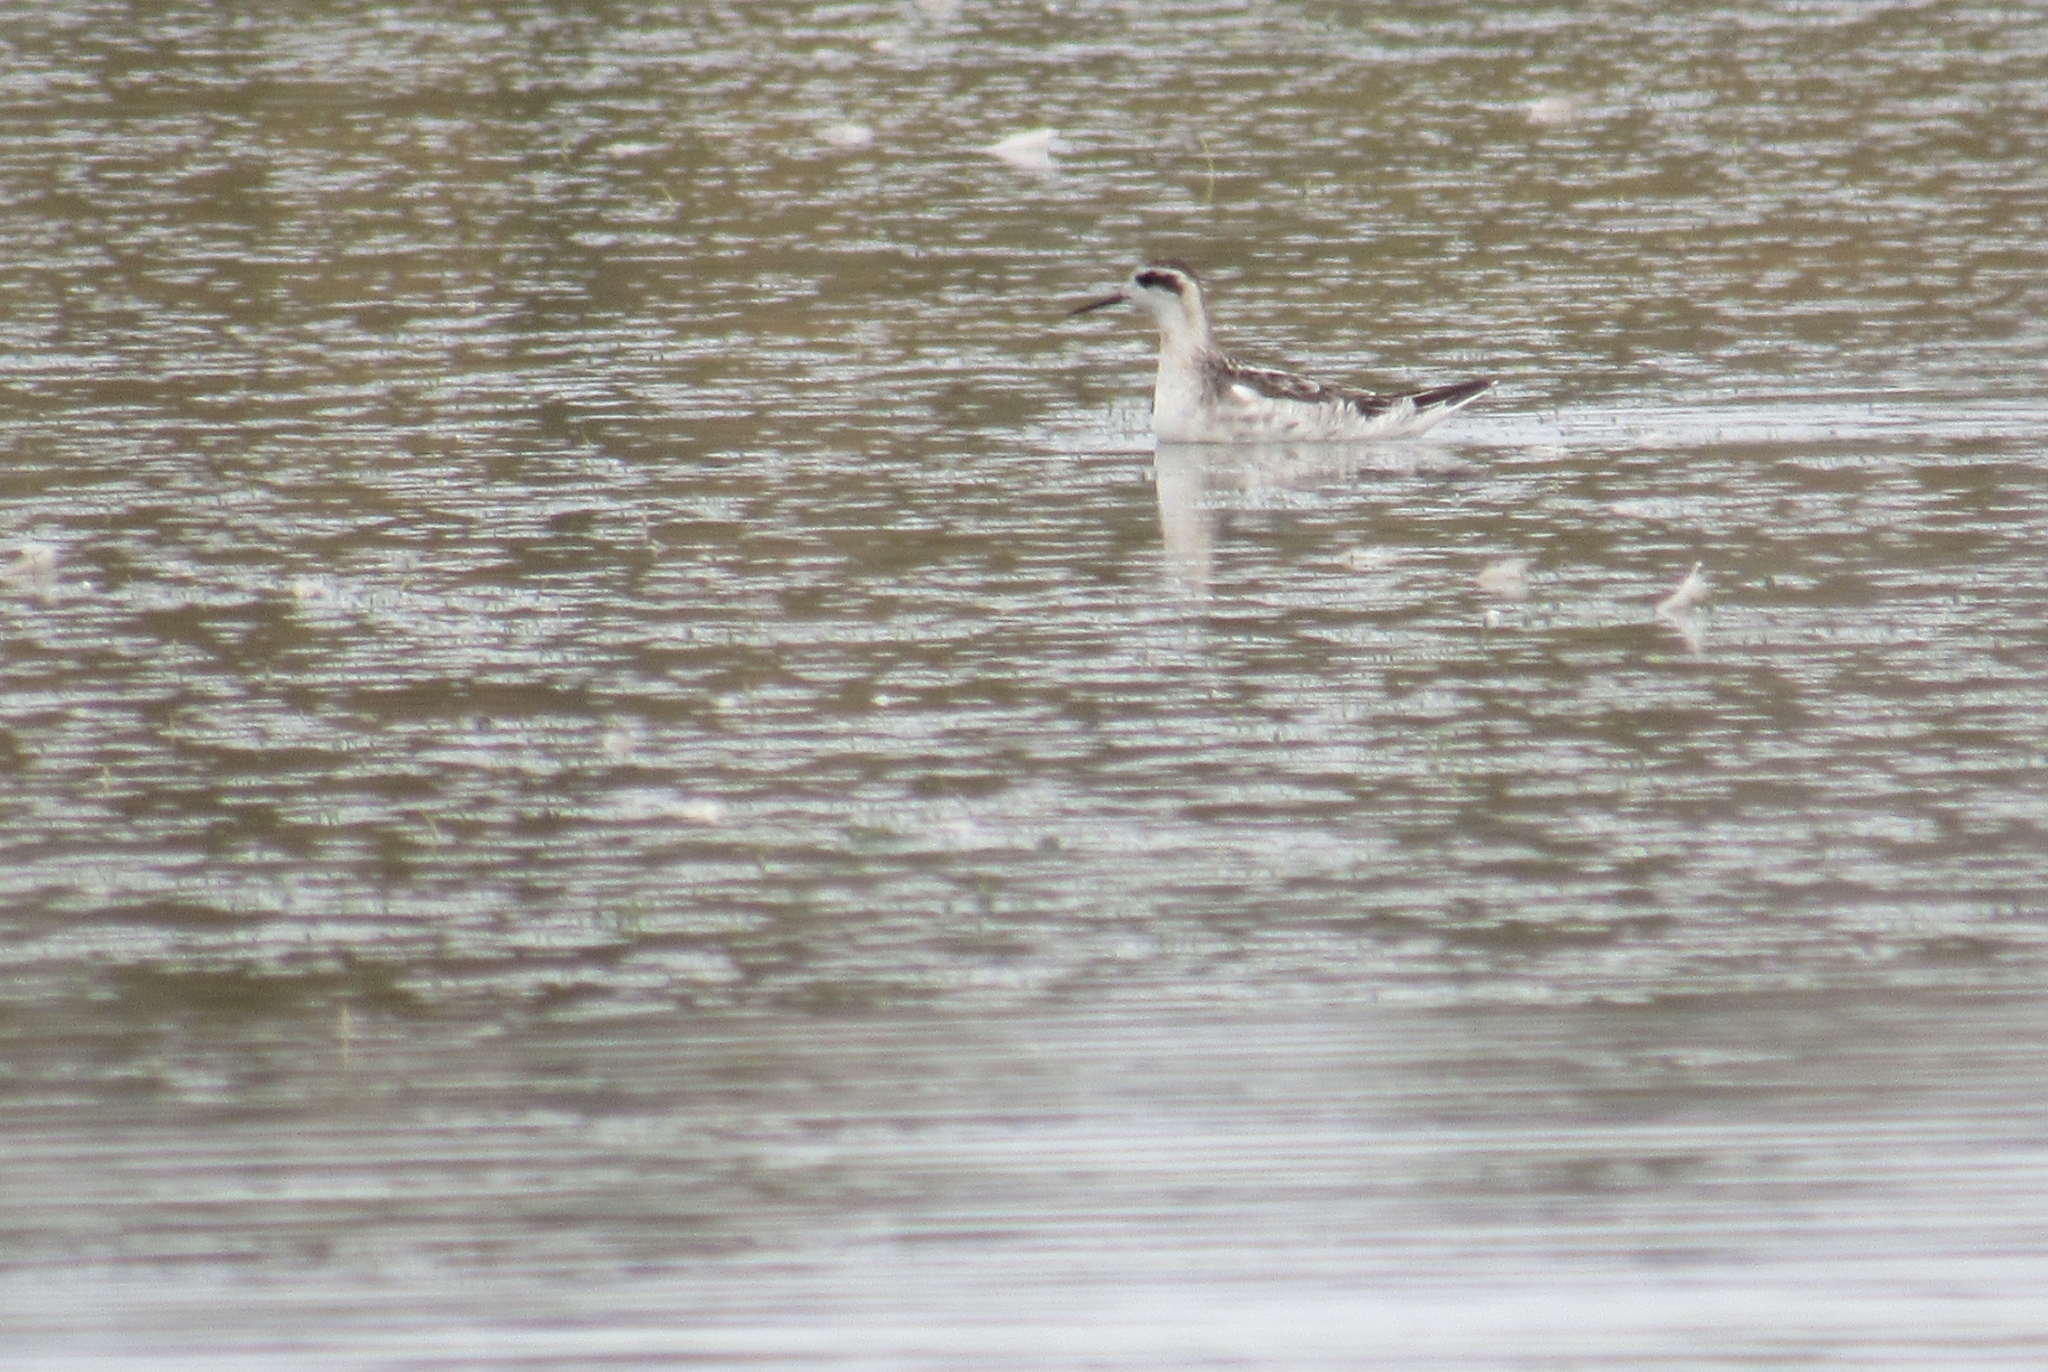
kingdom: Animalia
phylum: Chordata
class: Aves
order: Charadriiformes
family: Scolopacidae
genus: Phalaropus
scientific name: Phalaropus lobatus
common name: Red-necked phalarope
